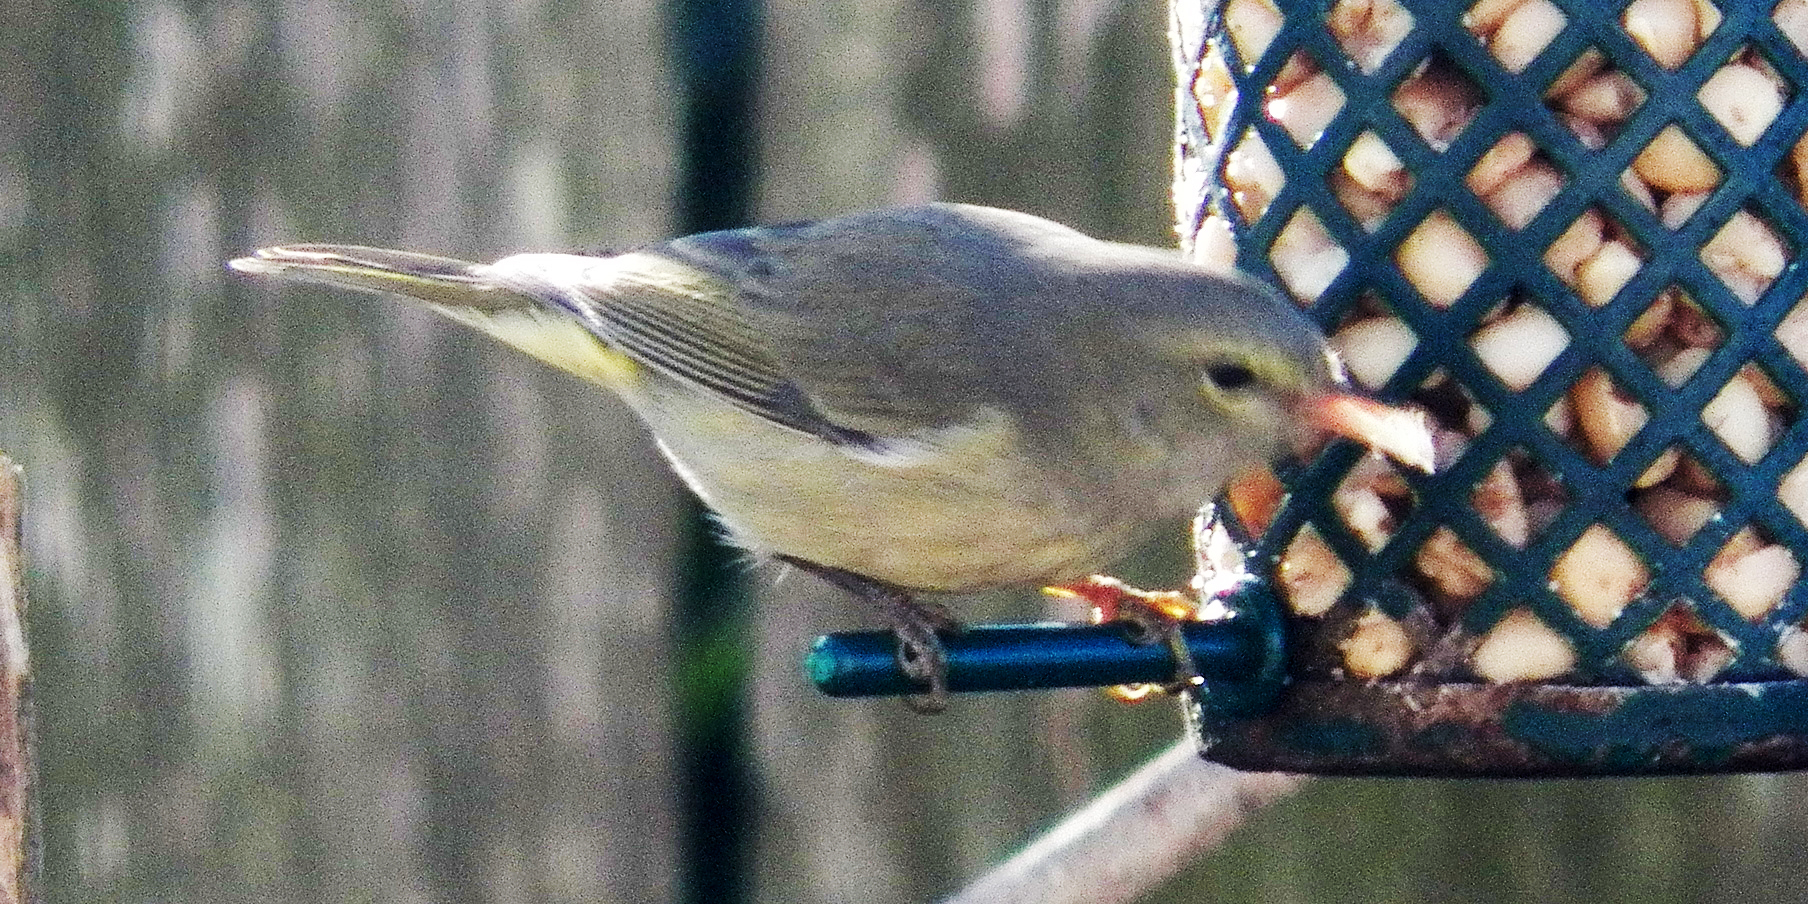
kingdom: Animalia
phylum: Chordata
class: Aves
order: Passeriformes
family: Parulidae
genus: Leiothlypis
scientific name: Leiothlypis celata
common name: Orange-crowned warbler
